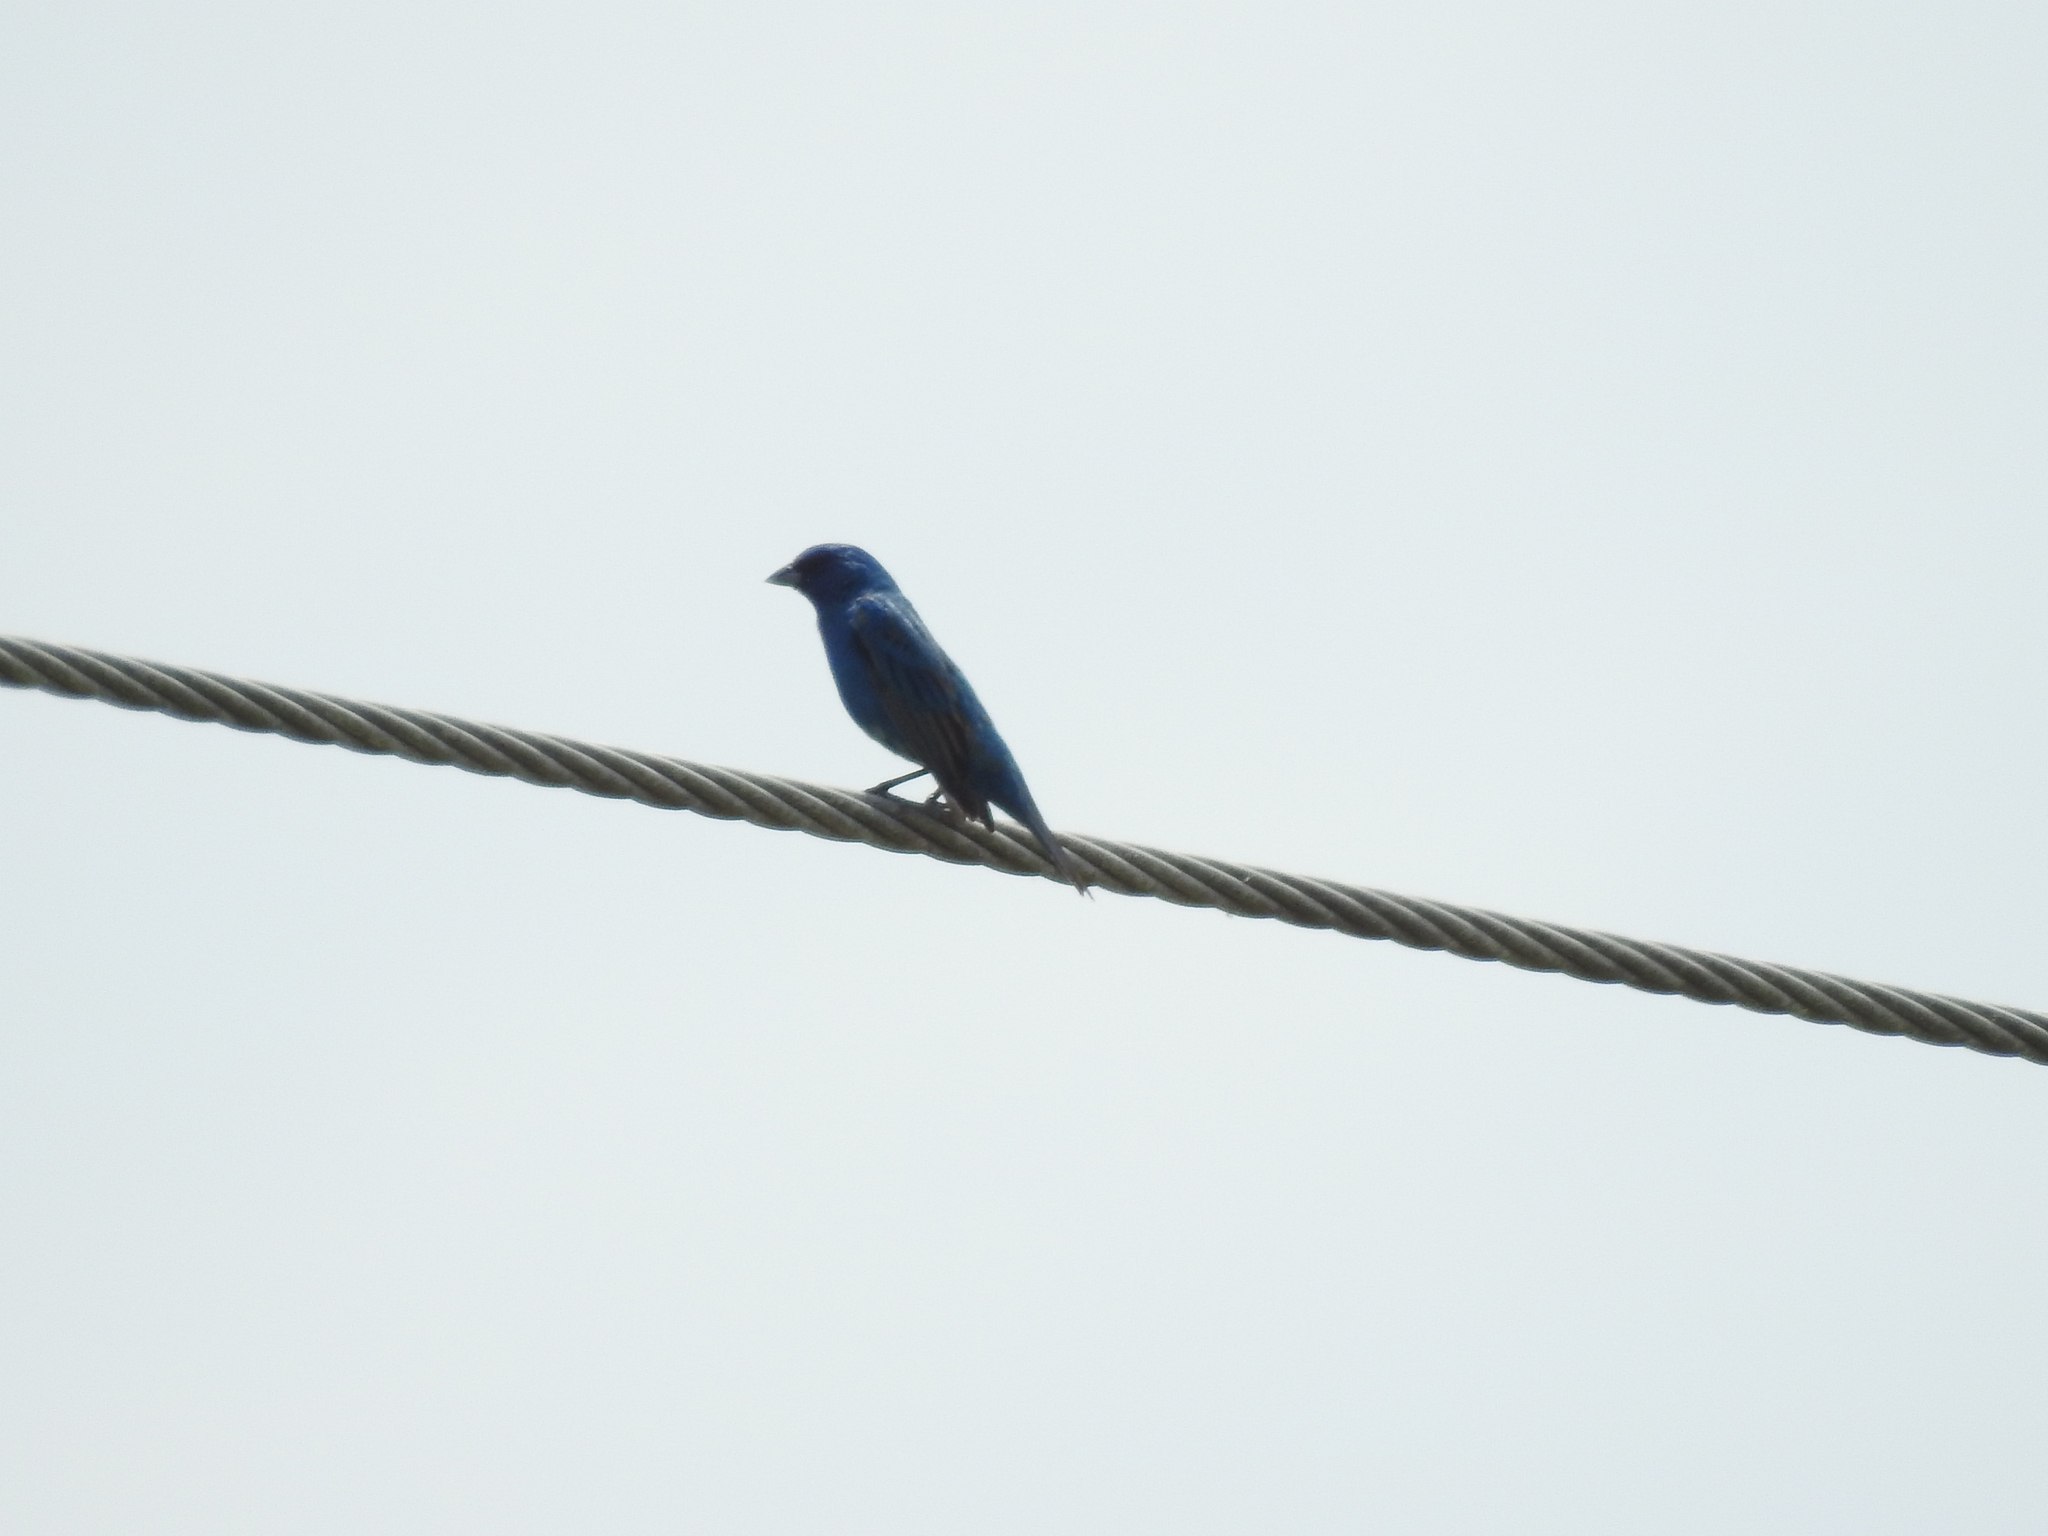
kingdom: Animalia
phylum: Chordata
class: Aves
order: Passeriformes
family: Cardinalidae
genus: Passerina
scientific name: Passerina cyanea
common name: Indigo bunting
